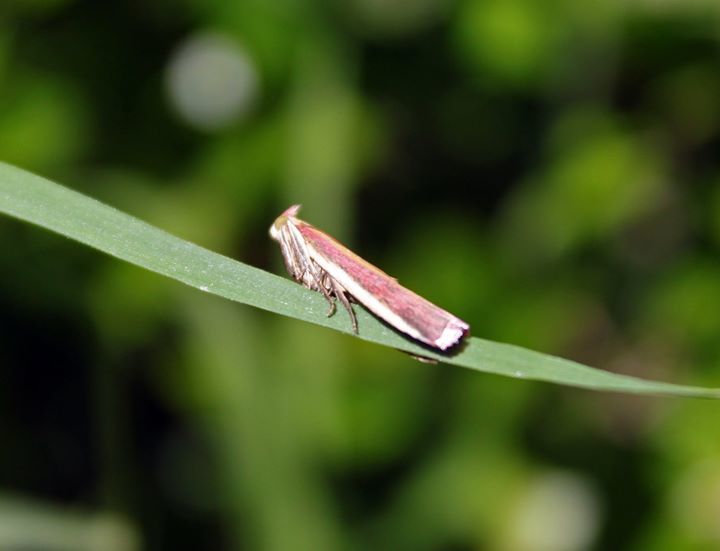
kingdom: Animalia
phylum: Arthropoda
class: Insecta
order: Lepidoptera
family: Pyralidae
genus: Oncocera
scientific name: Oncocera semirubella
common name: Rosy-striped knot-horn
